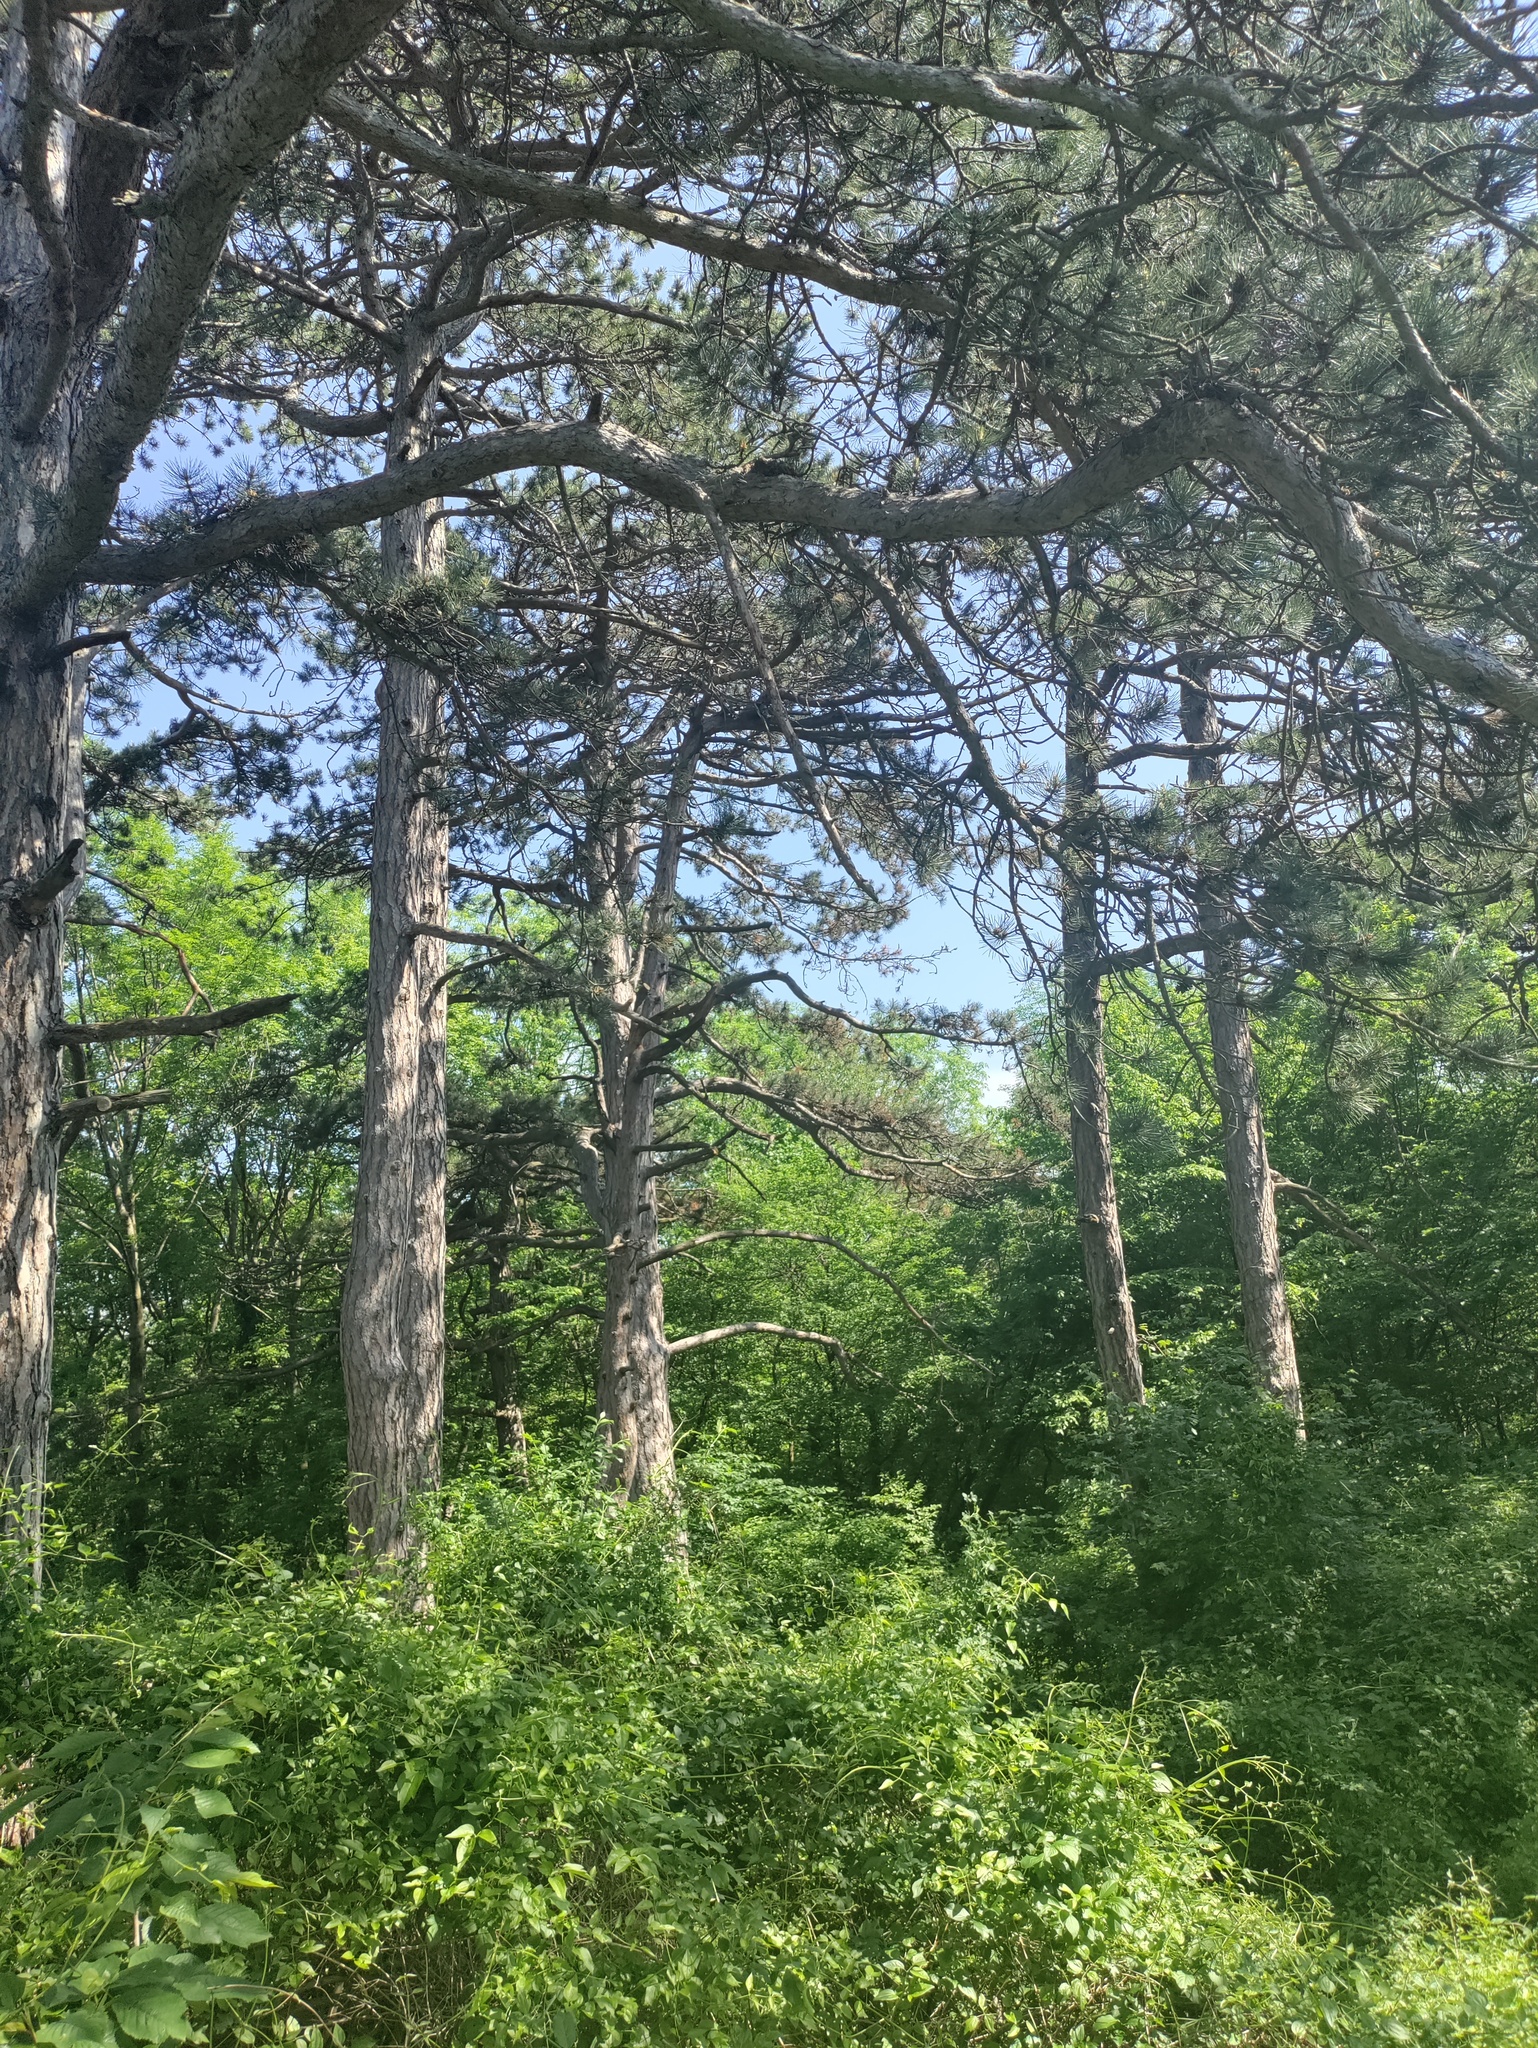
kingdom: Plantae
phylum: Tracheophyta
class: Pinopsida
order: Pinales
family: Pinaceae
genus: Pinus
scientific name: Pinus nigra
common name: Austrian pine
